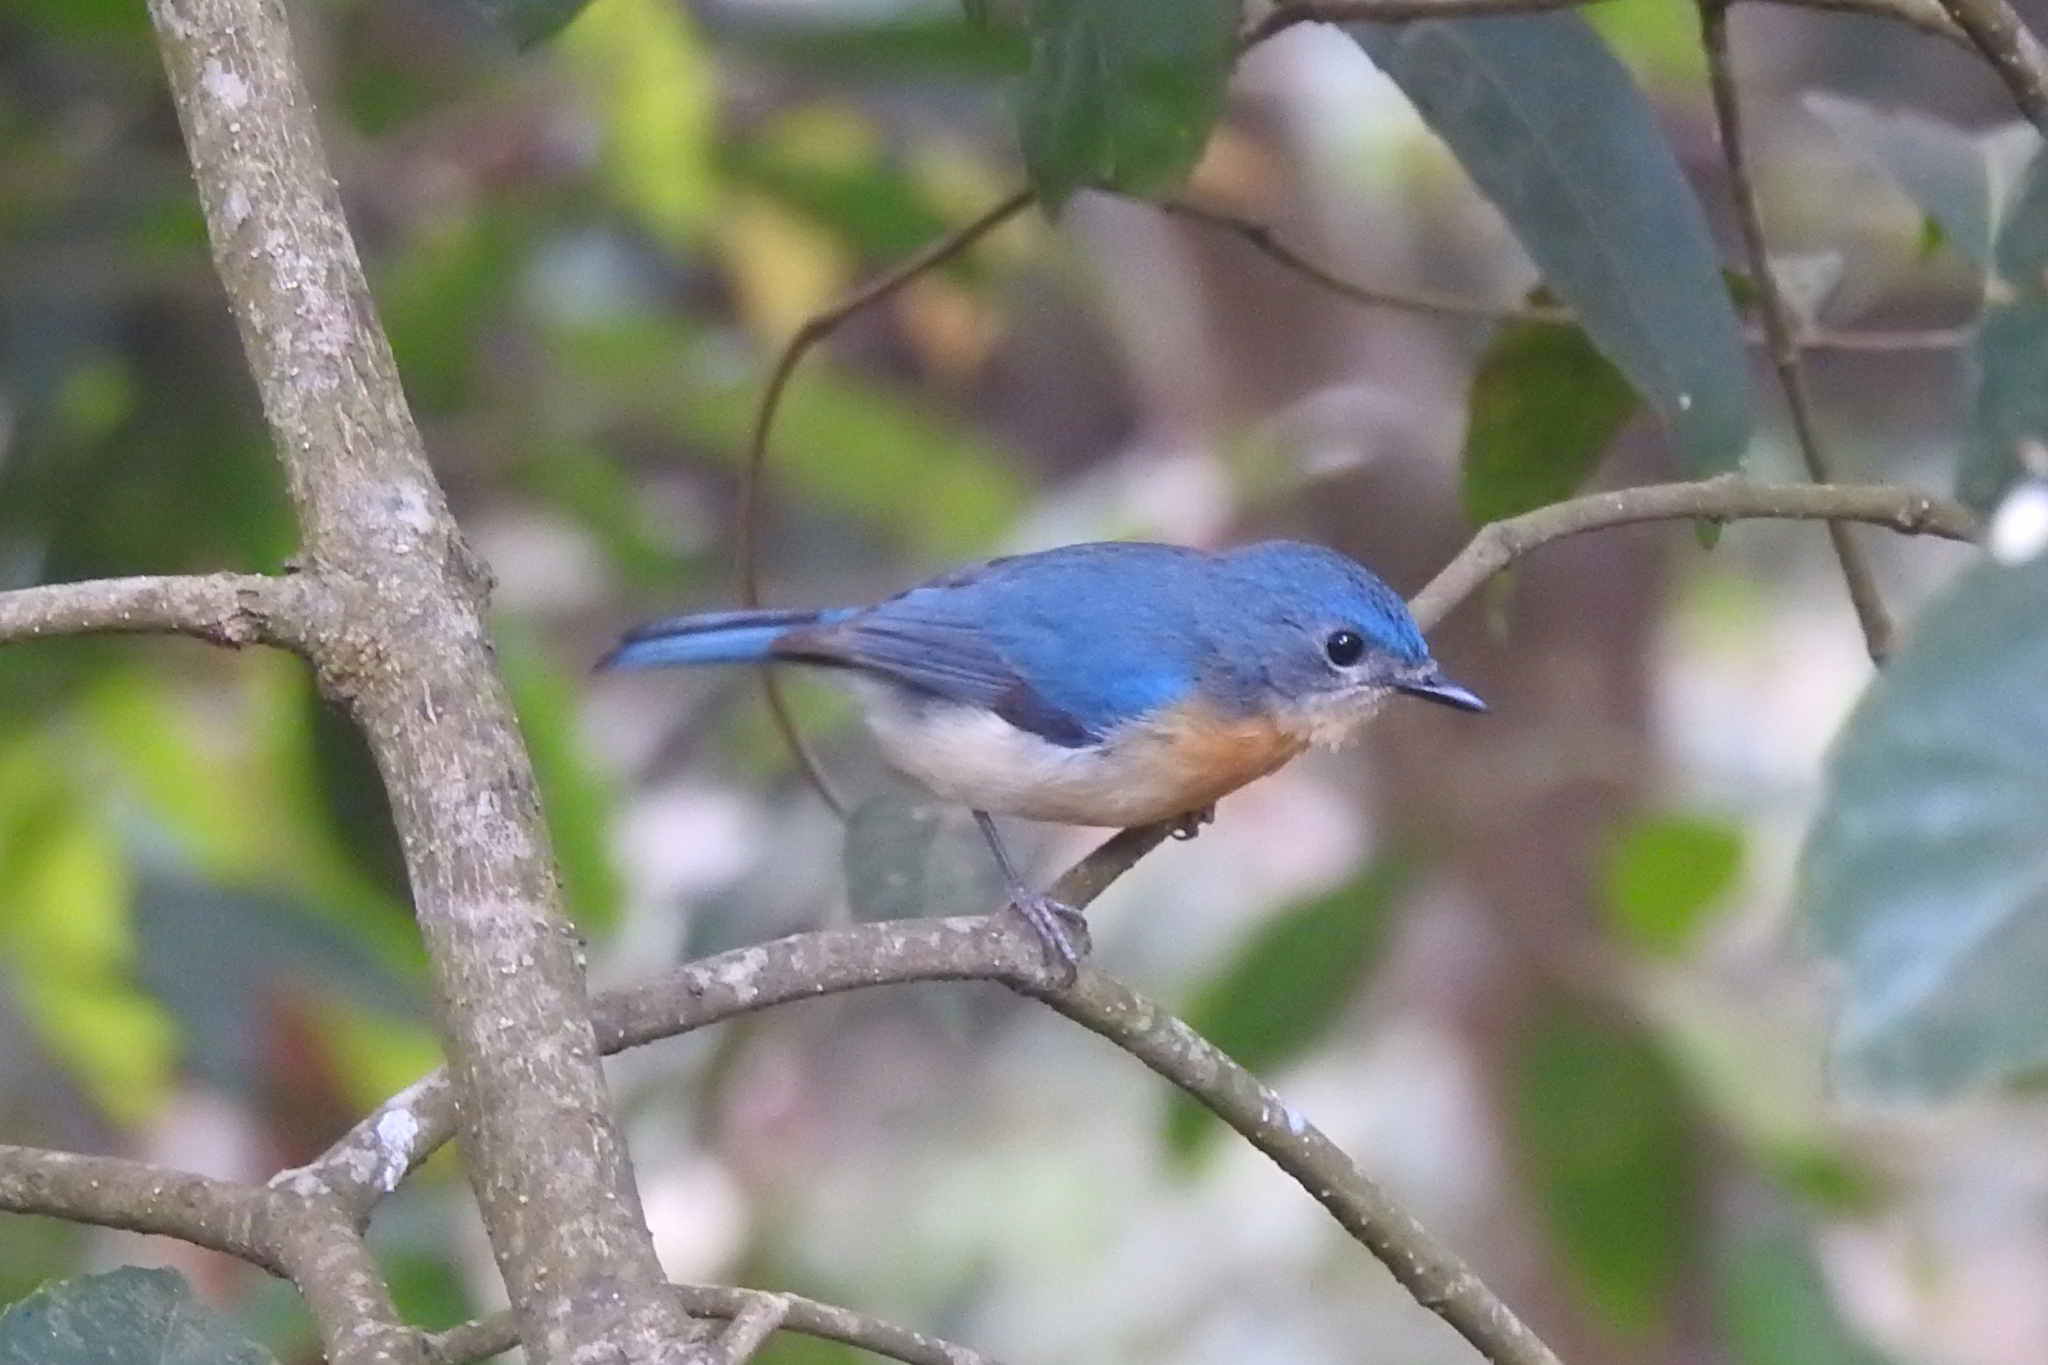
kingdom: Animalia
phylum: Chordata
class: Aves
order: Passeriformes
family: Muscicapidae
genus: Cyornis
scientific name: Cyornis tickelliae
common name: Tickell's blue flycatcher
